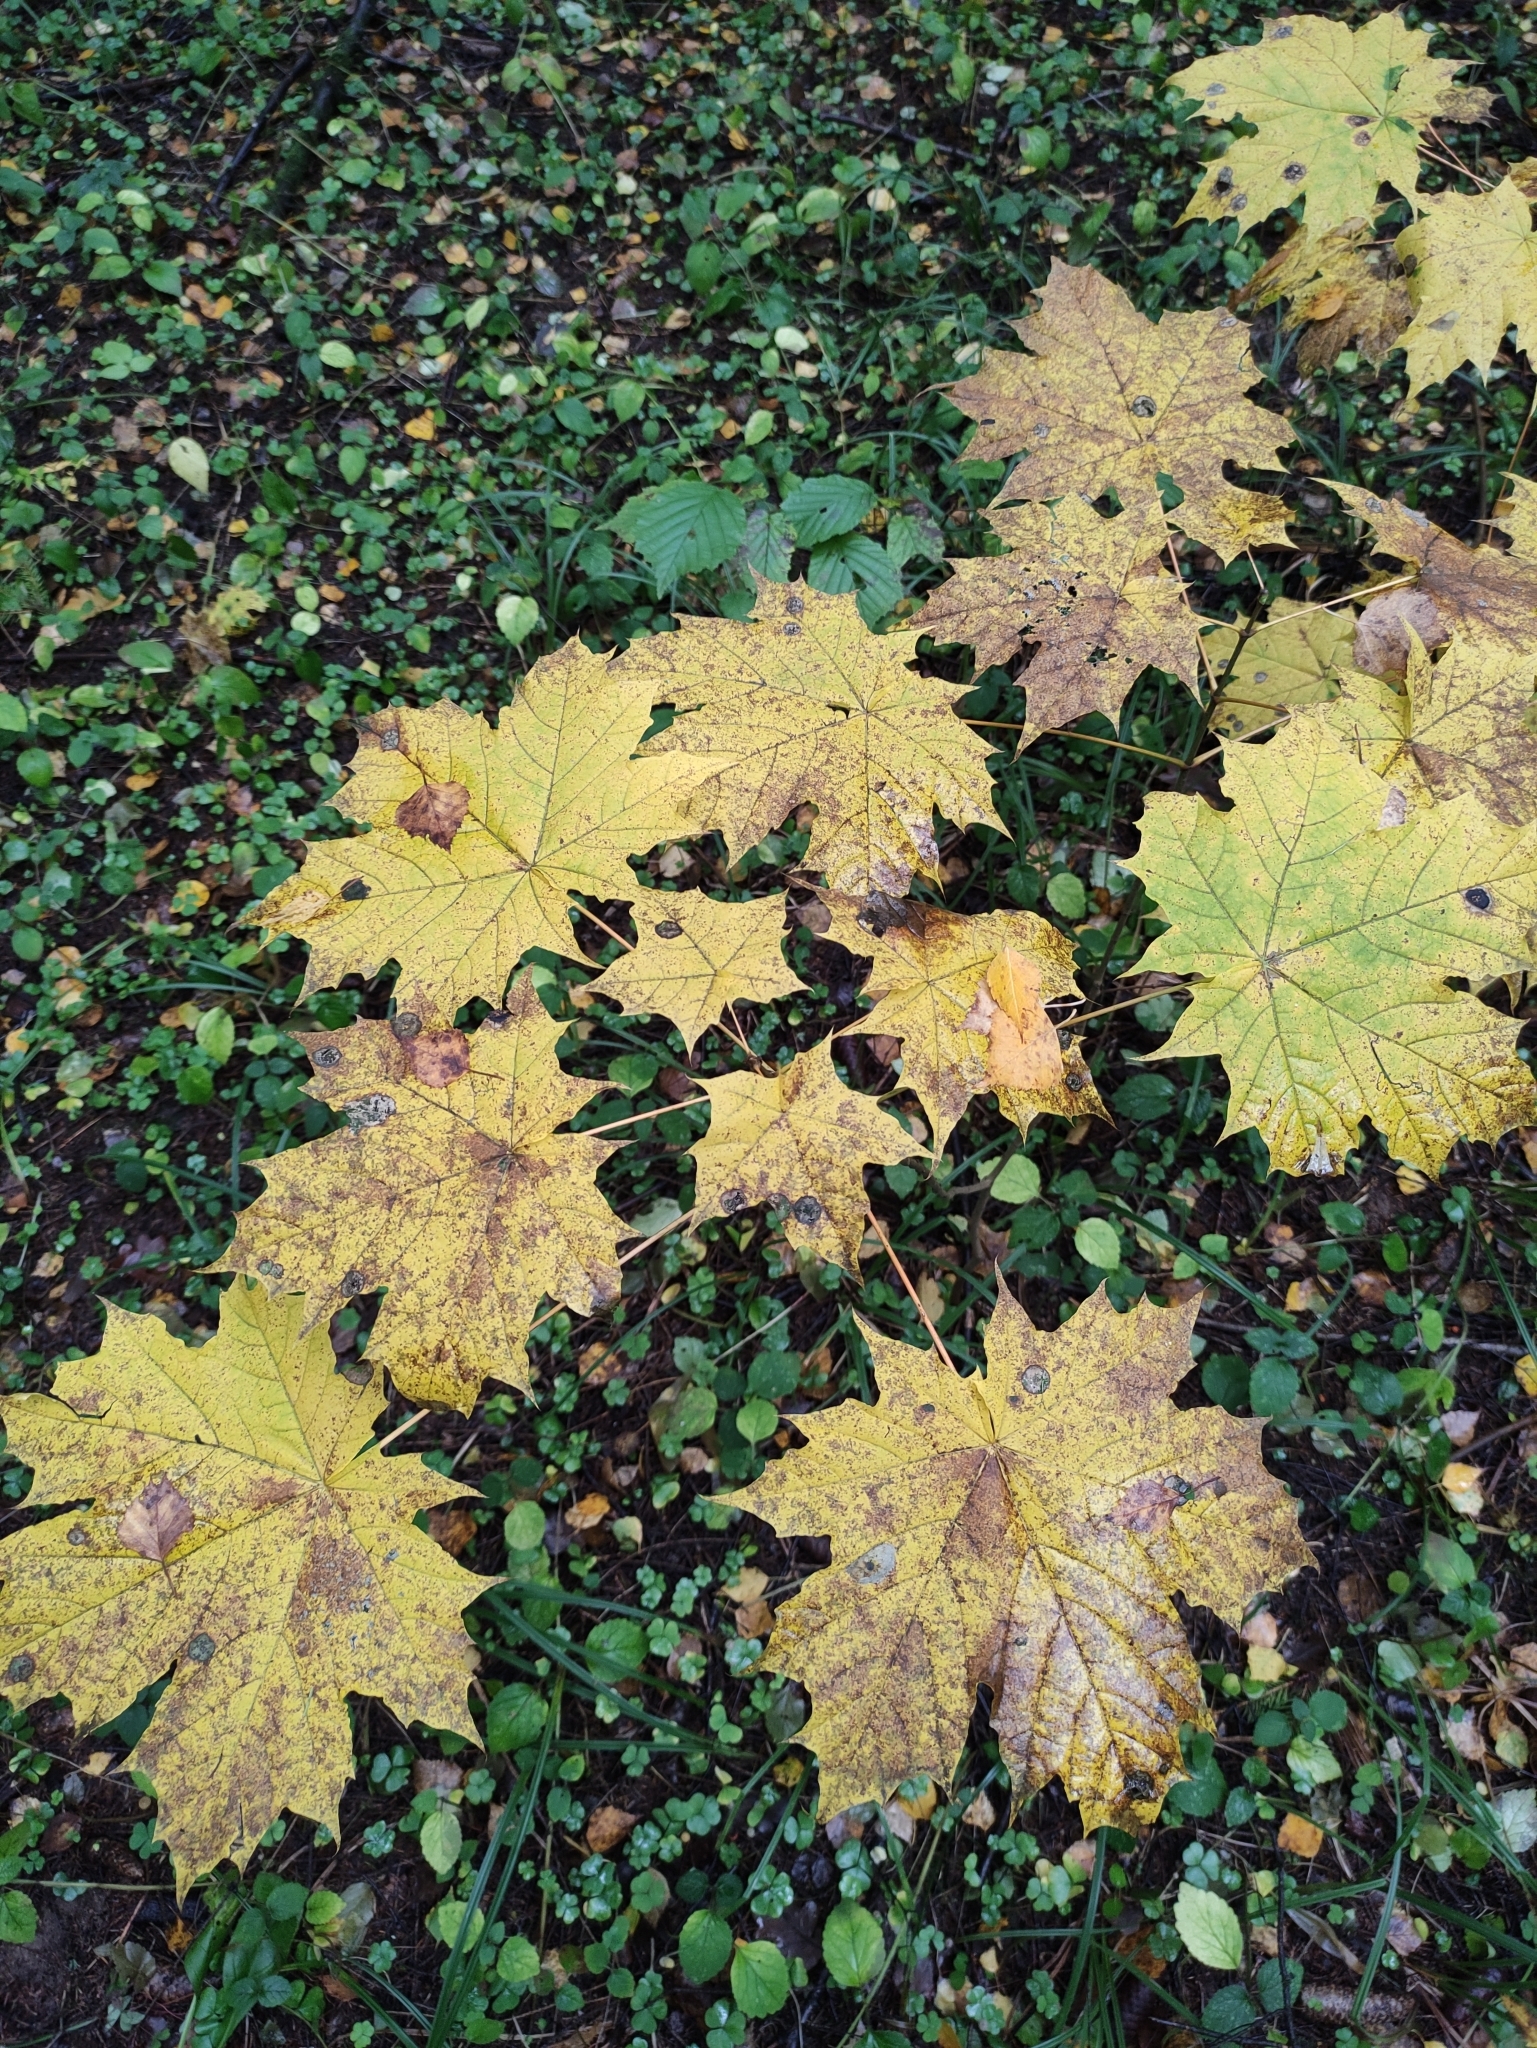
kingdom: Plantae
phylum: Tracheophyta
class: Magnoliopsida
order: Sapindales
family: Sapindaceae
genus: Acer
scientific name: Acer platanoides
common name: Norway maple
